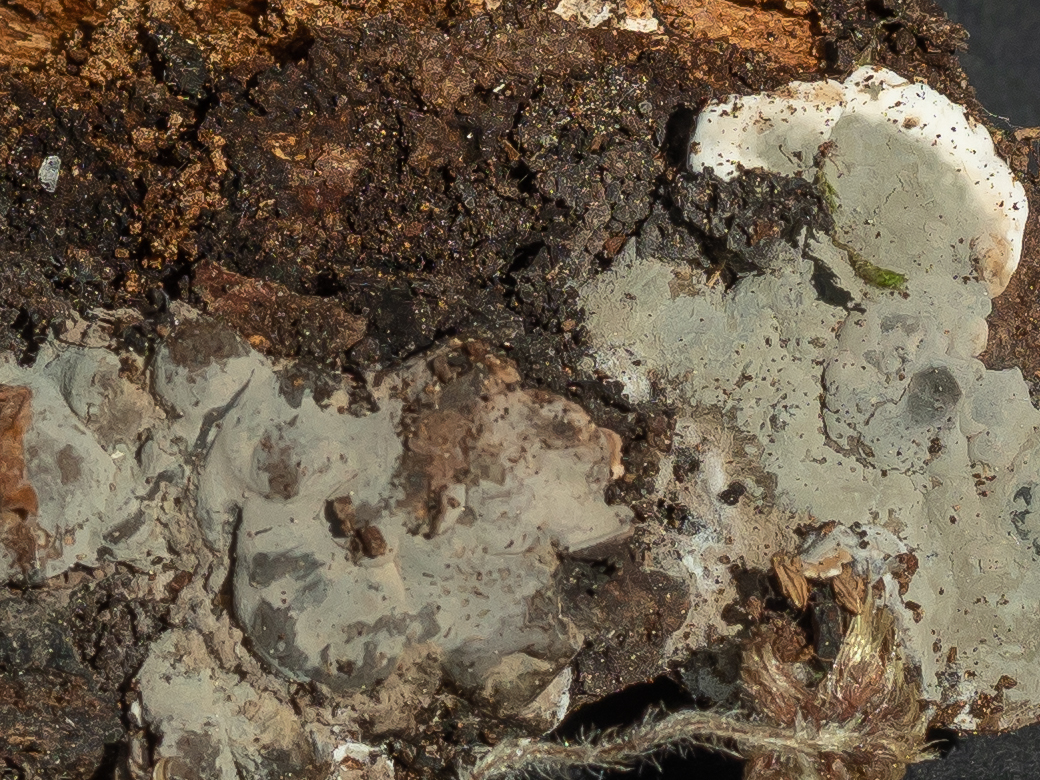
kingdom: Fungi
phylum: Ascomycota
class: Sordariomycetes
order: Xylariales
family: Xylariaceae
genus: Kretzschmaria
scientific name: Kretzschmaria deusta
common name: Brittle cinder
